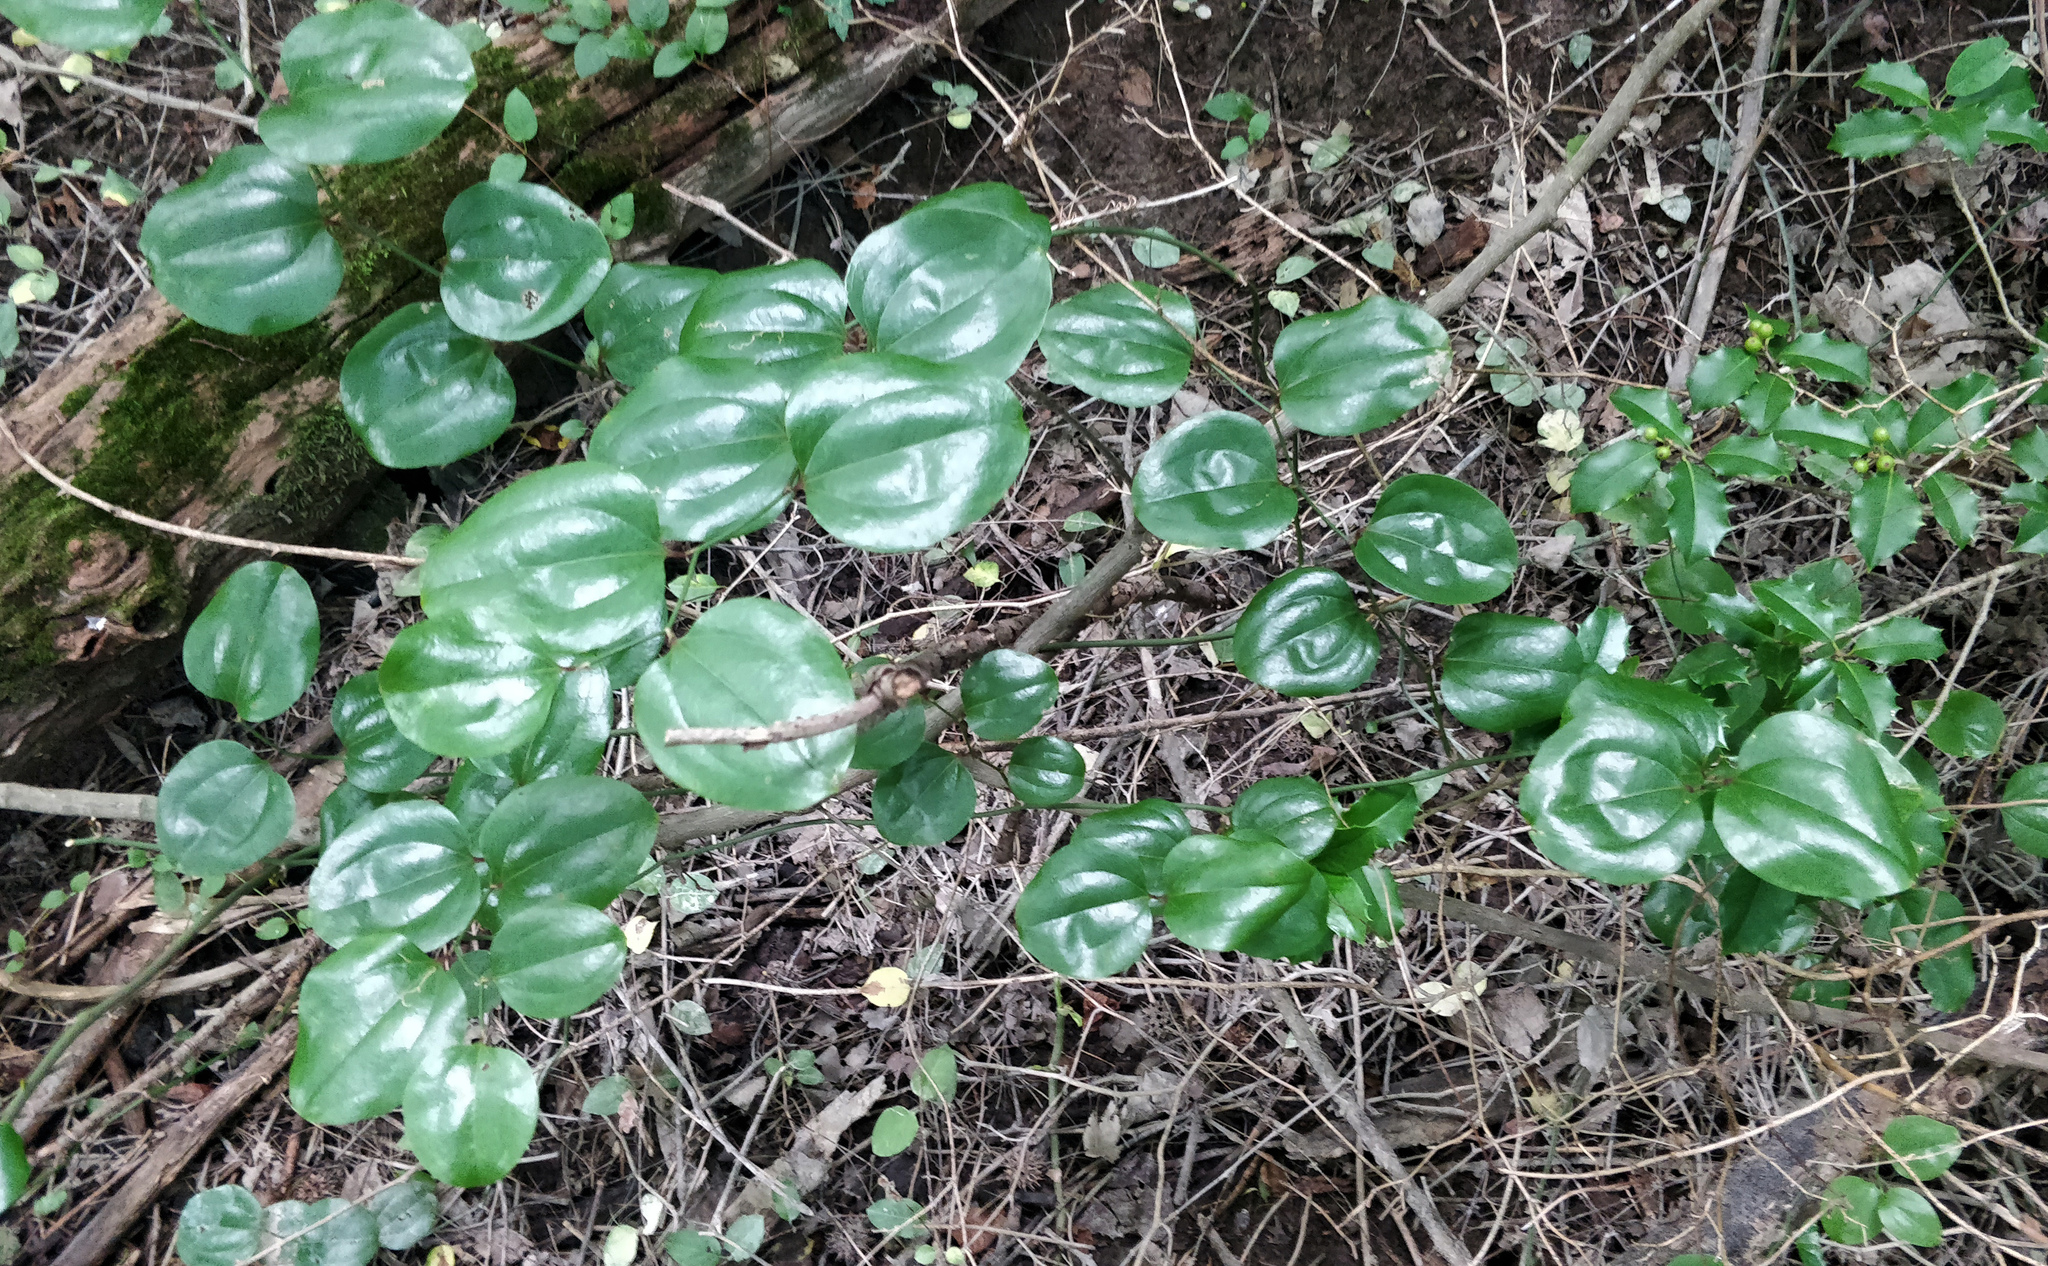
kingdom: Plantae
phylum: Tracheophyta
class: Liliopsida
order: Liliales
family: Smilacaceae
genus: Smilax
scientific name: Smilax rotundifolia
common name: Bullbriar
